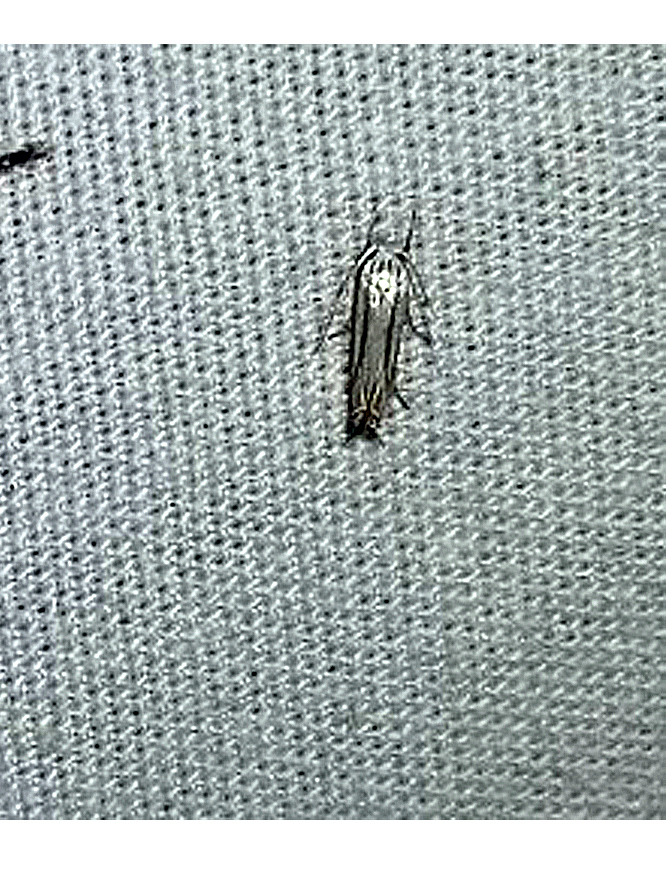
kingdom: Animalia
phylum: Arthropoda
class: Insecta
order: Lepidoptera
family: Gelechiidae
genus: Polyhymno
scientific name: Polyhymno luteostrigella
